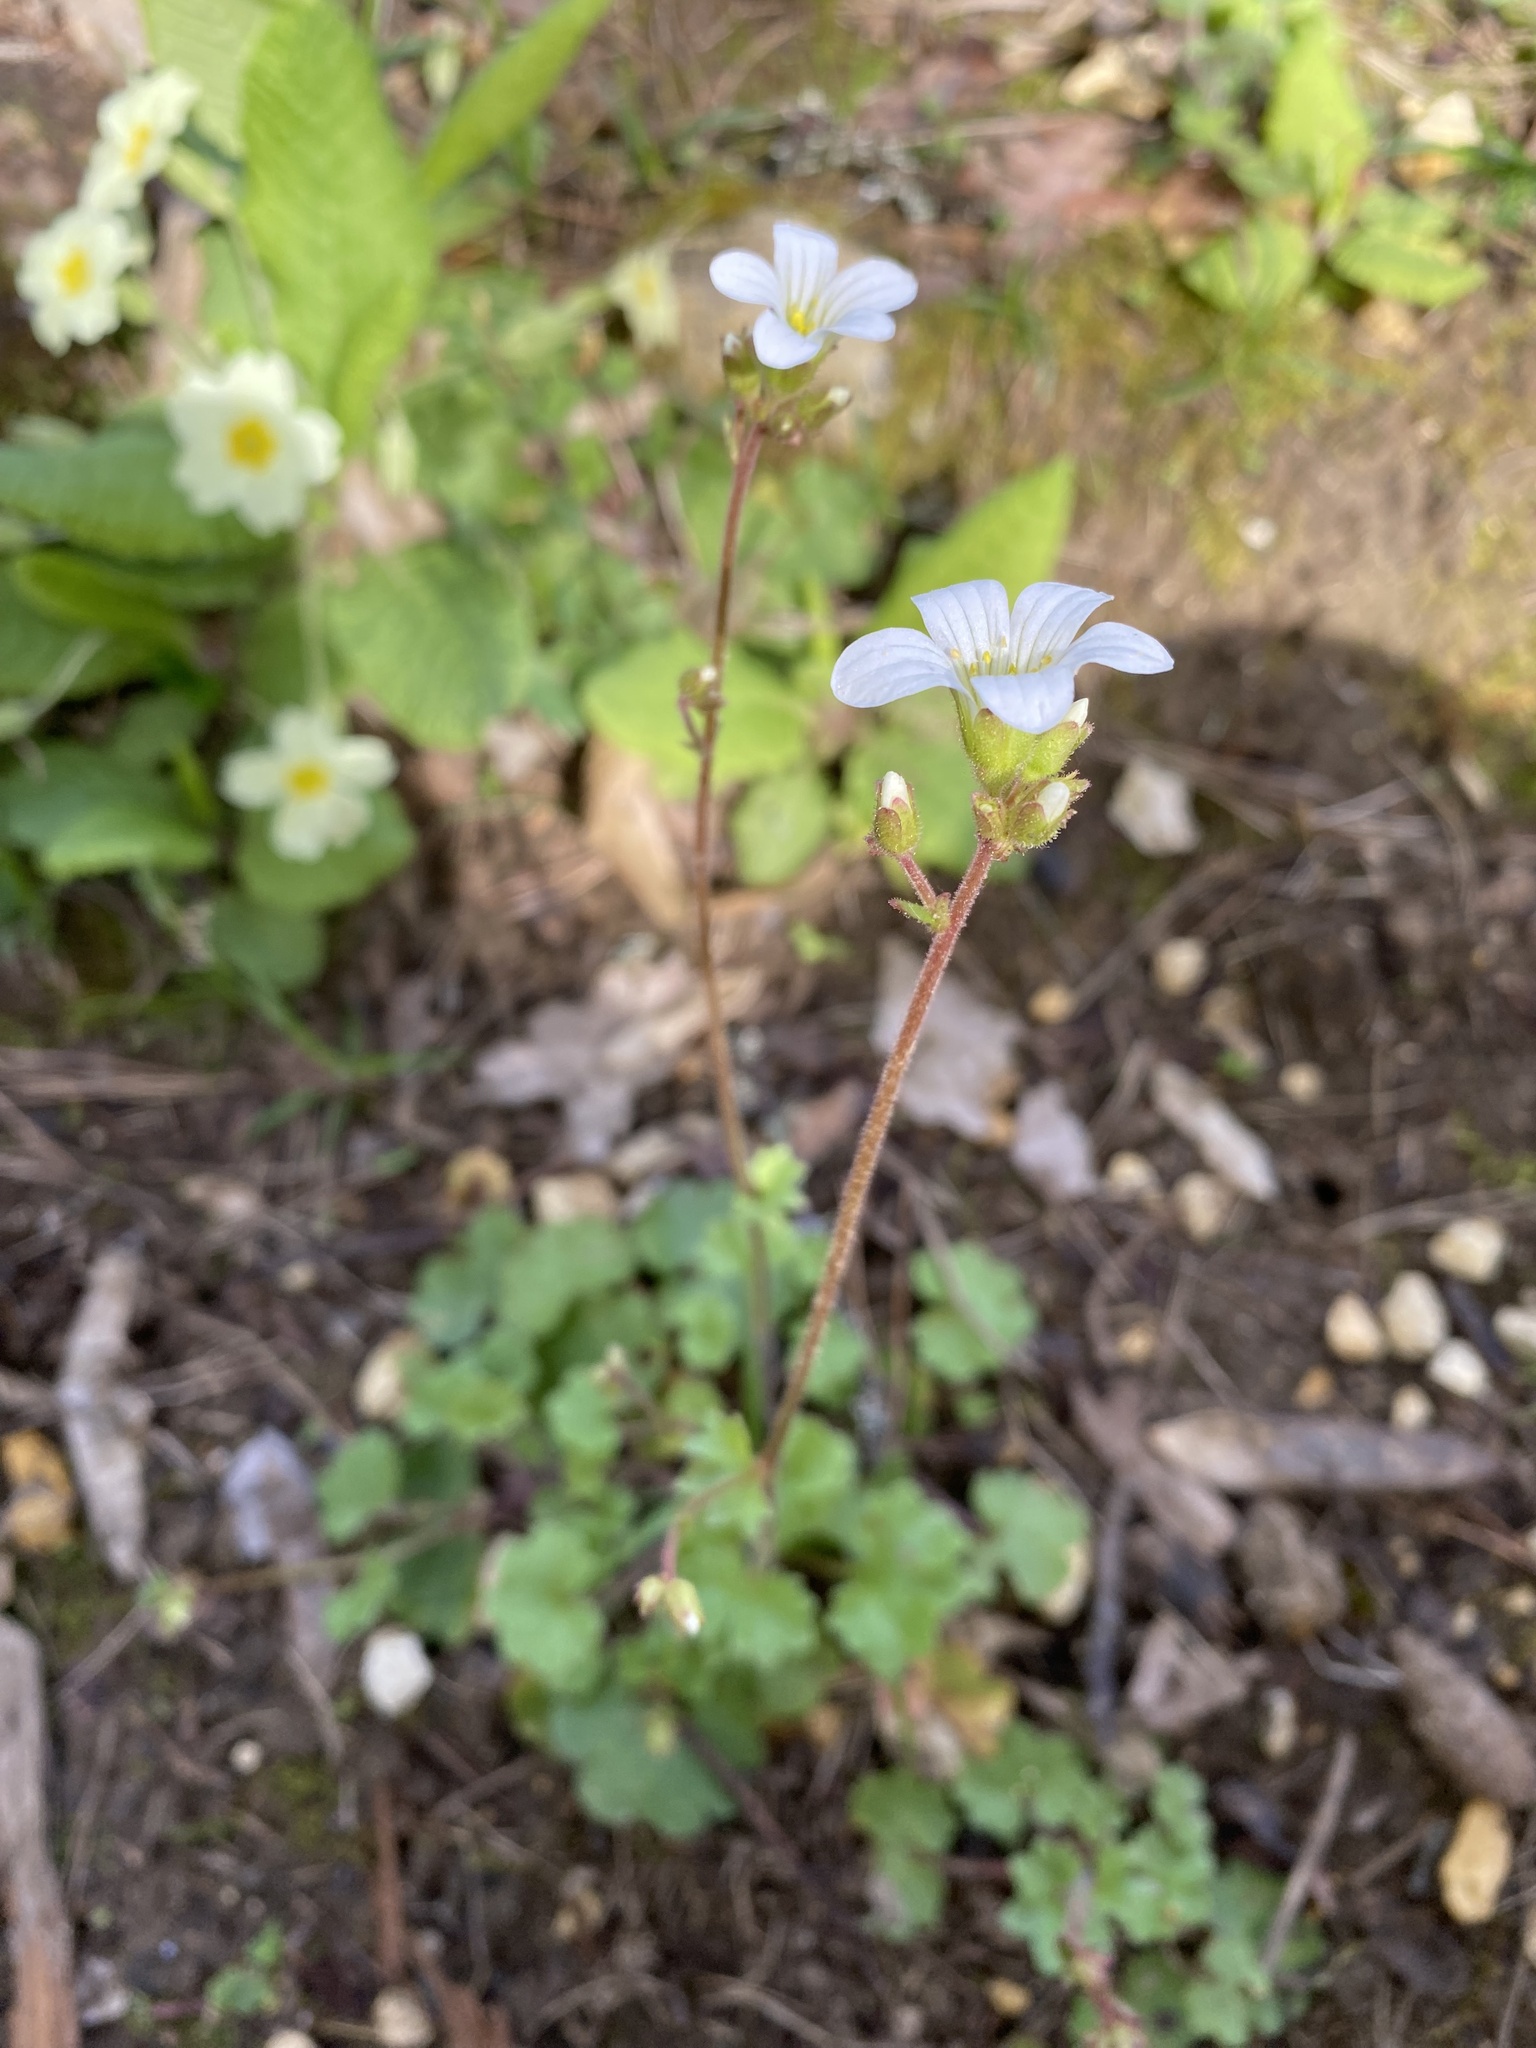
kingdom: Plantae
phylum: Tracheophyta
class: Magnoliopsida
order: Saxifragales
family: Saxifragaceae
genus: Saxifraga
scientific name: Saxifraga granulata
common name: Meadow saxifrage
